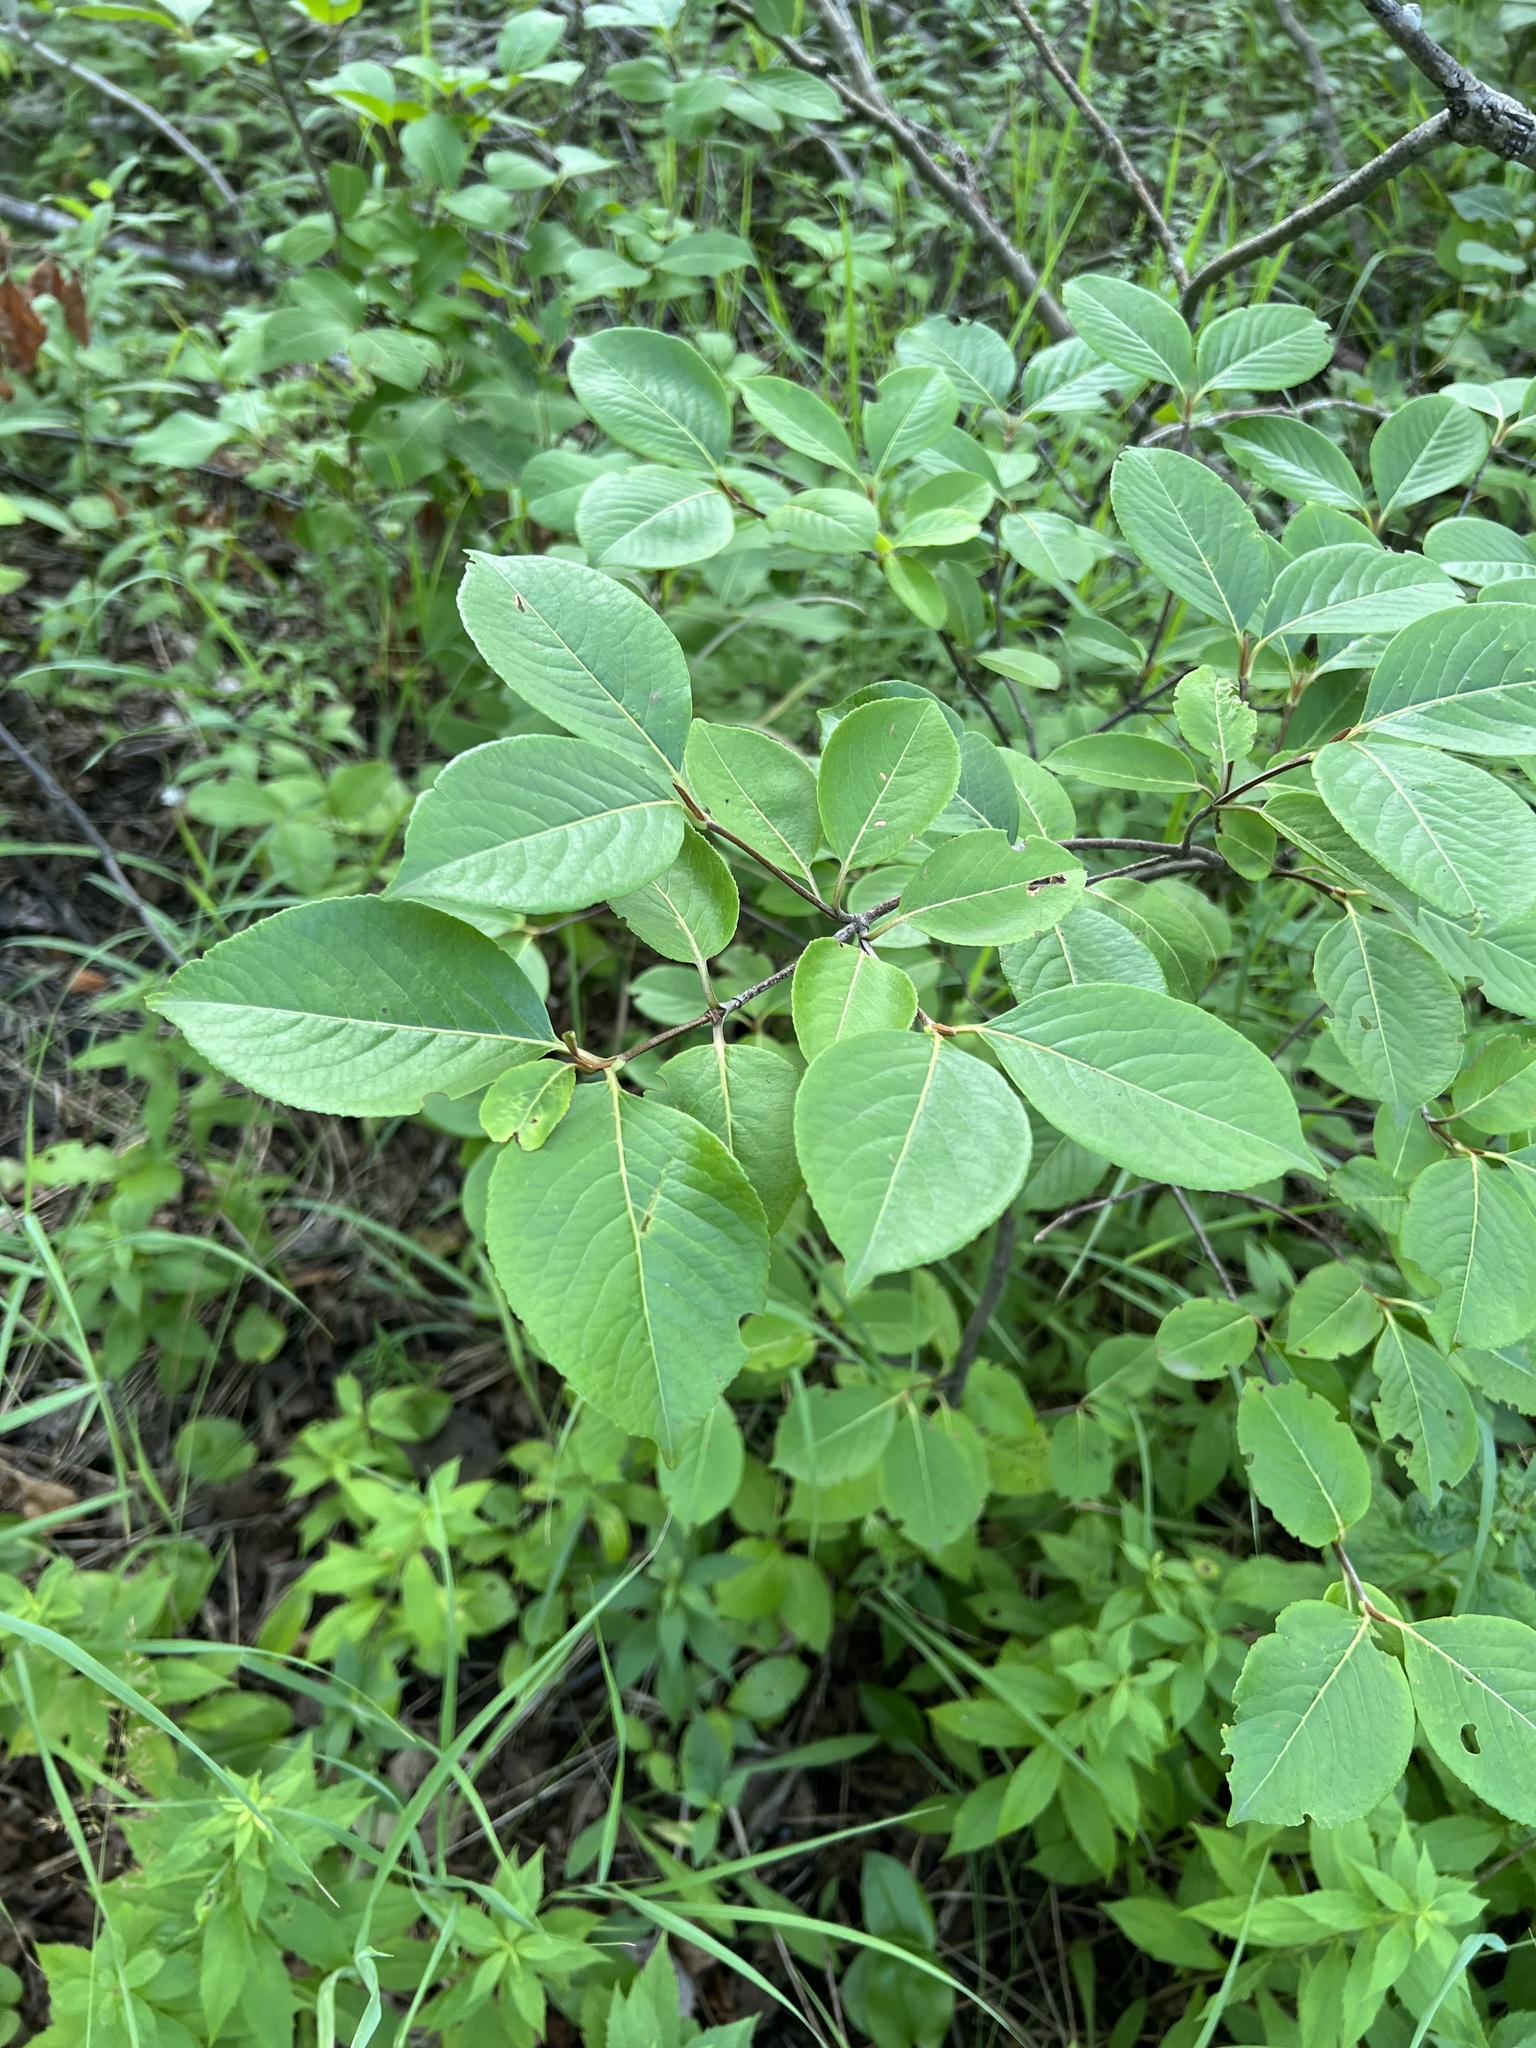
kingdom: Plantae
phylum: Tracheophyta
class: Magnoliopsida
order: Dipsacales
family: Viburnaceae
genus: Viburnum
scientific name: Viburnum cassinoides
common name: Swamp haw
